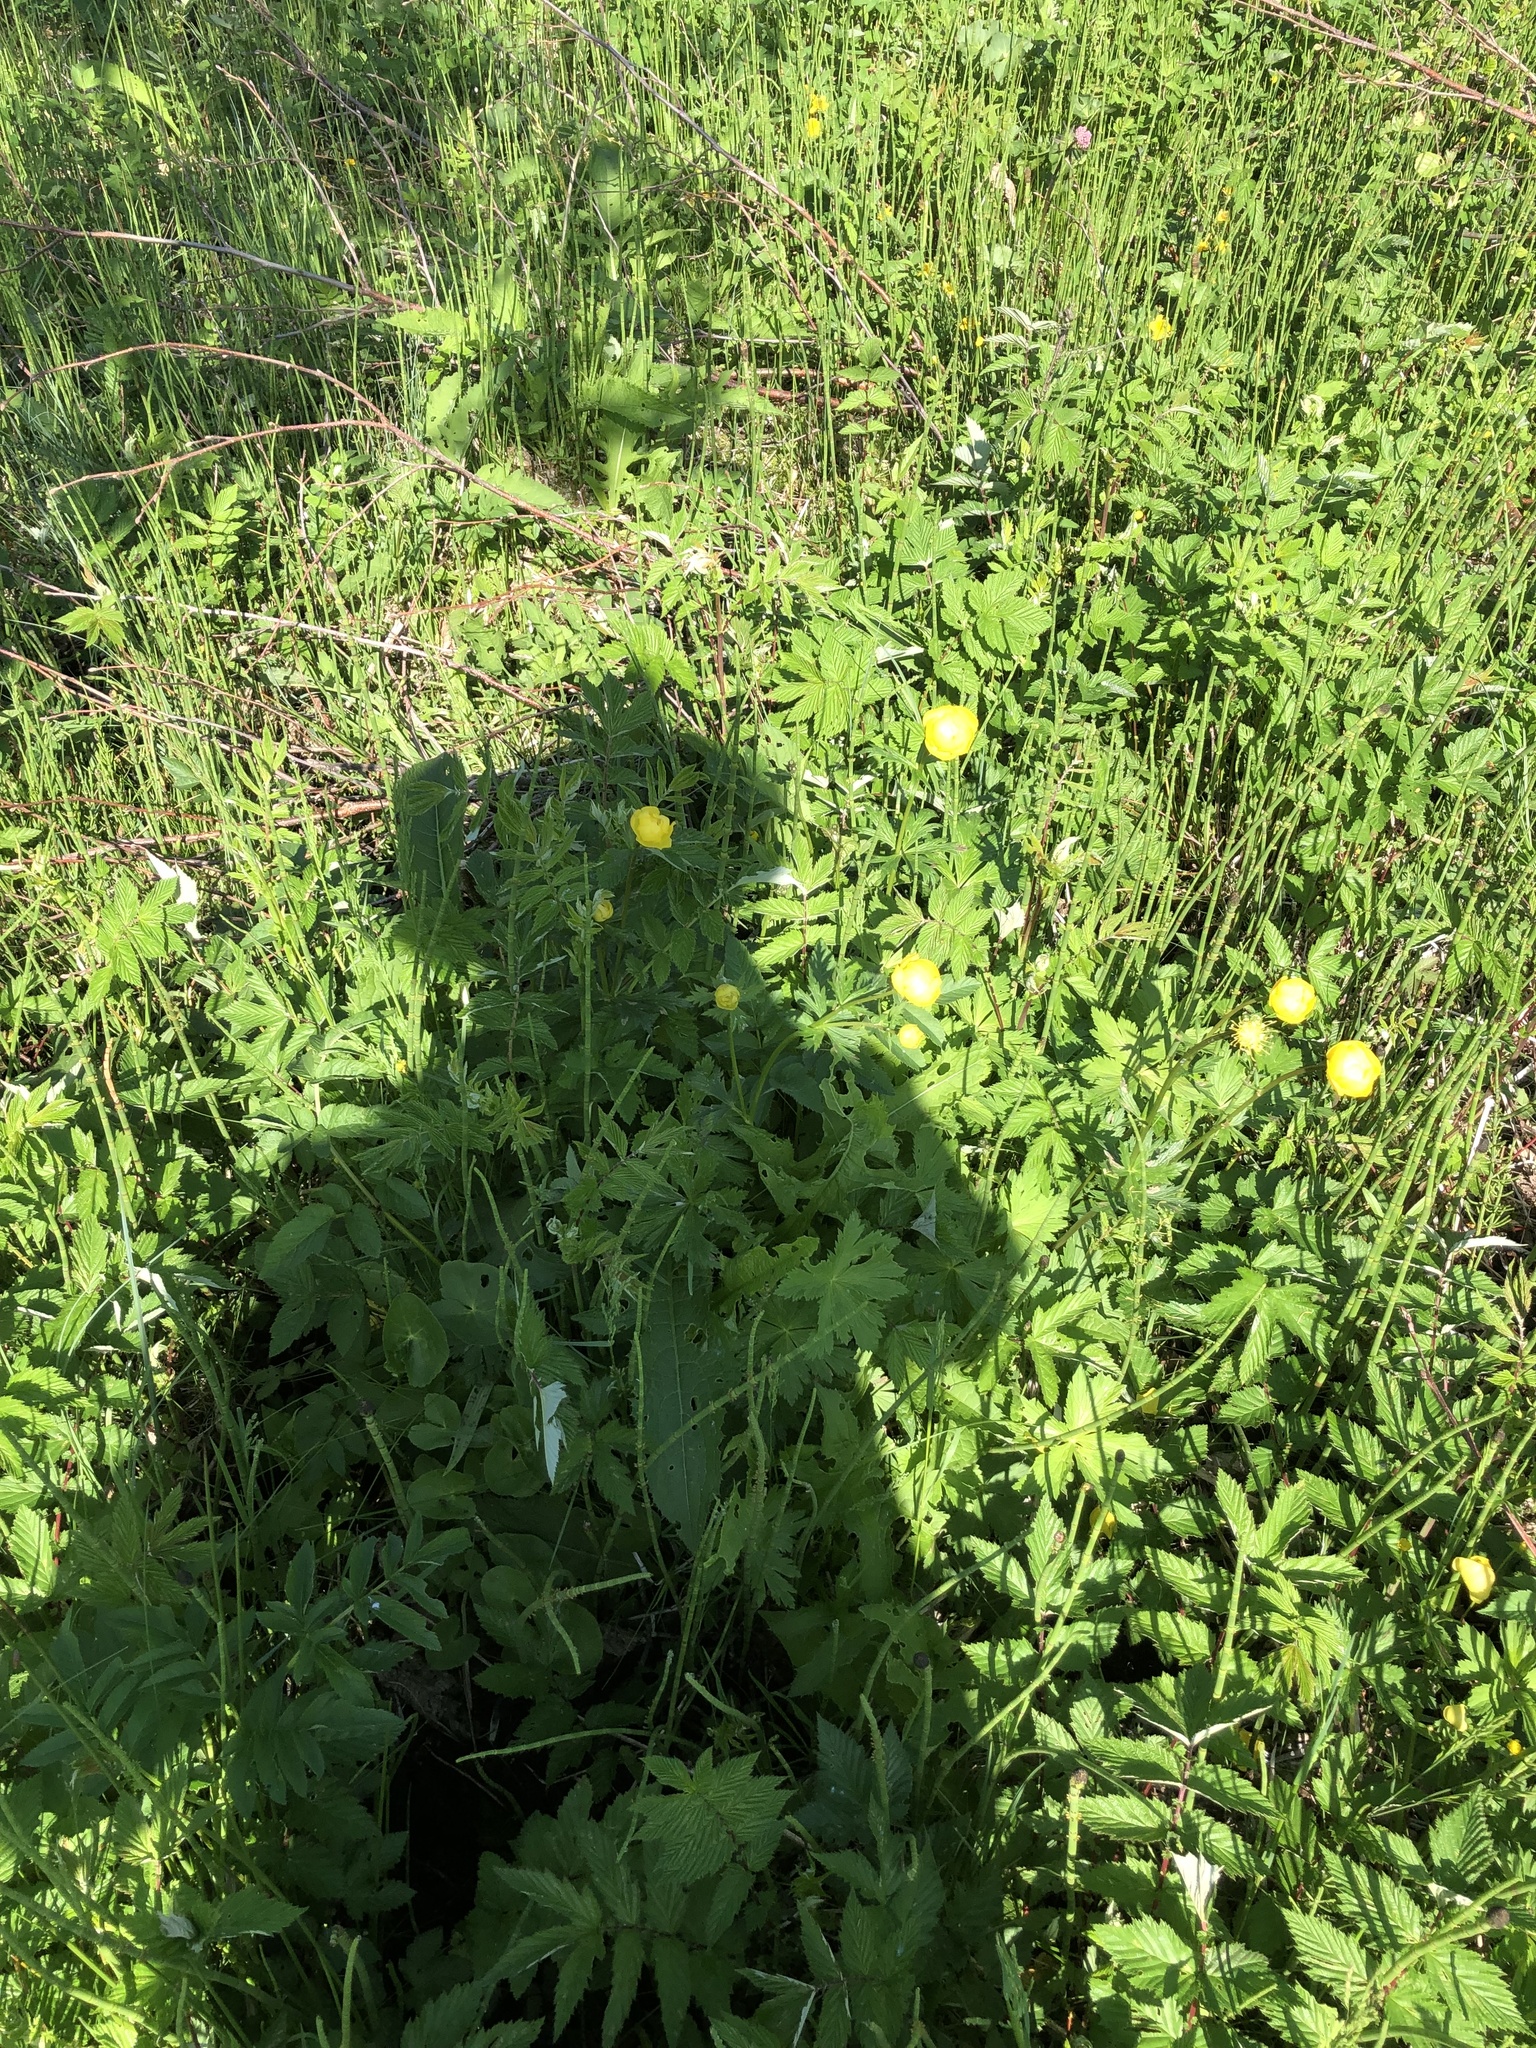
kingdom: Plantae
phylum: Tracheophyta
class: Magnoliopsida
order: Ranunculales
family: Ranunculaceae
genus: Trollius
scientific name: Trollius europaeus
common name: European globeflower
